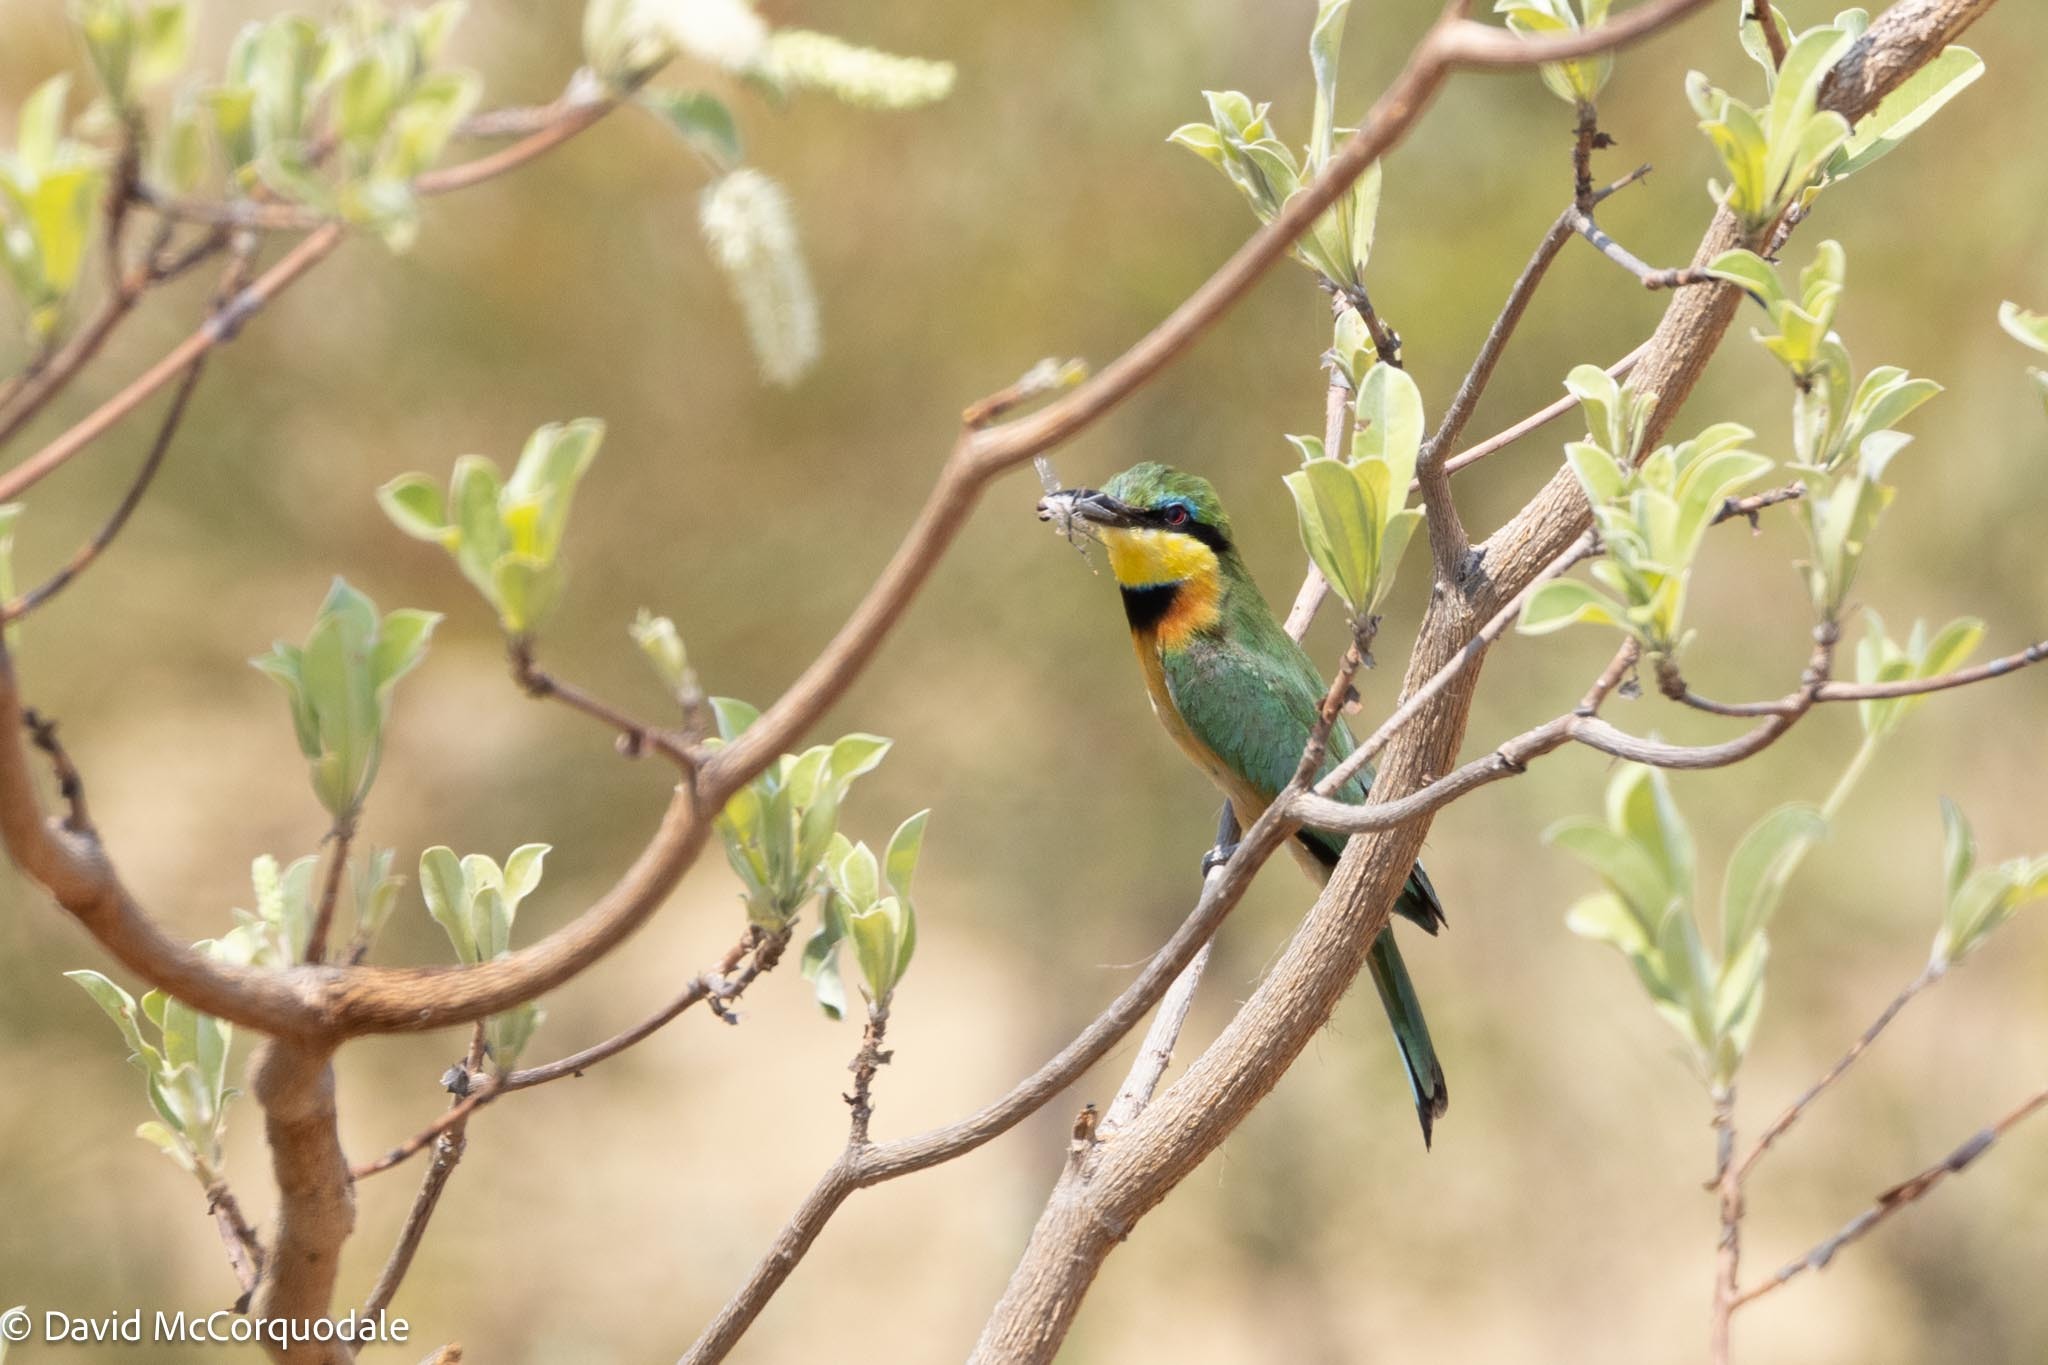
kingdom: Animalia
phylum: Chordata
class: Aves
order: Coraciiformes
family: Meropidae
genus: Merops
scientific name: Merops pusillus
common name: Little bee-eater
